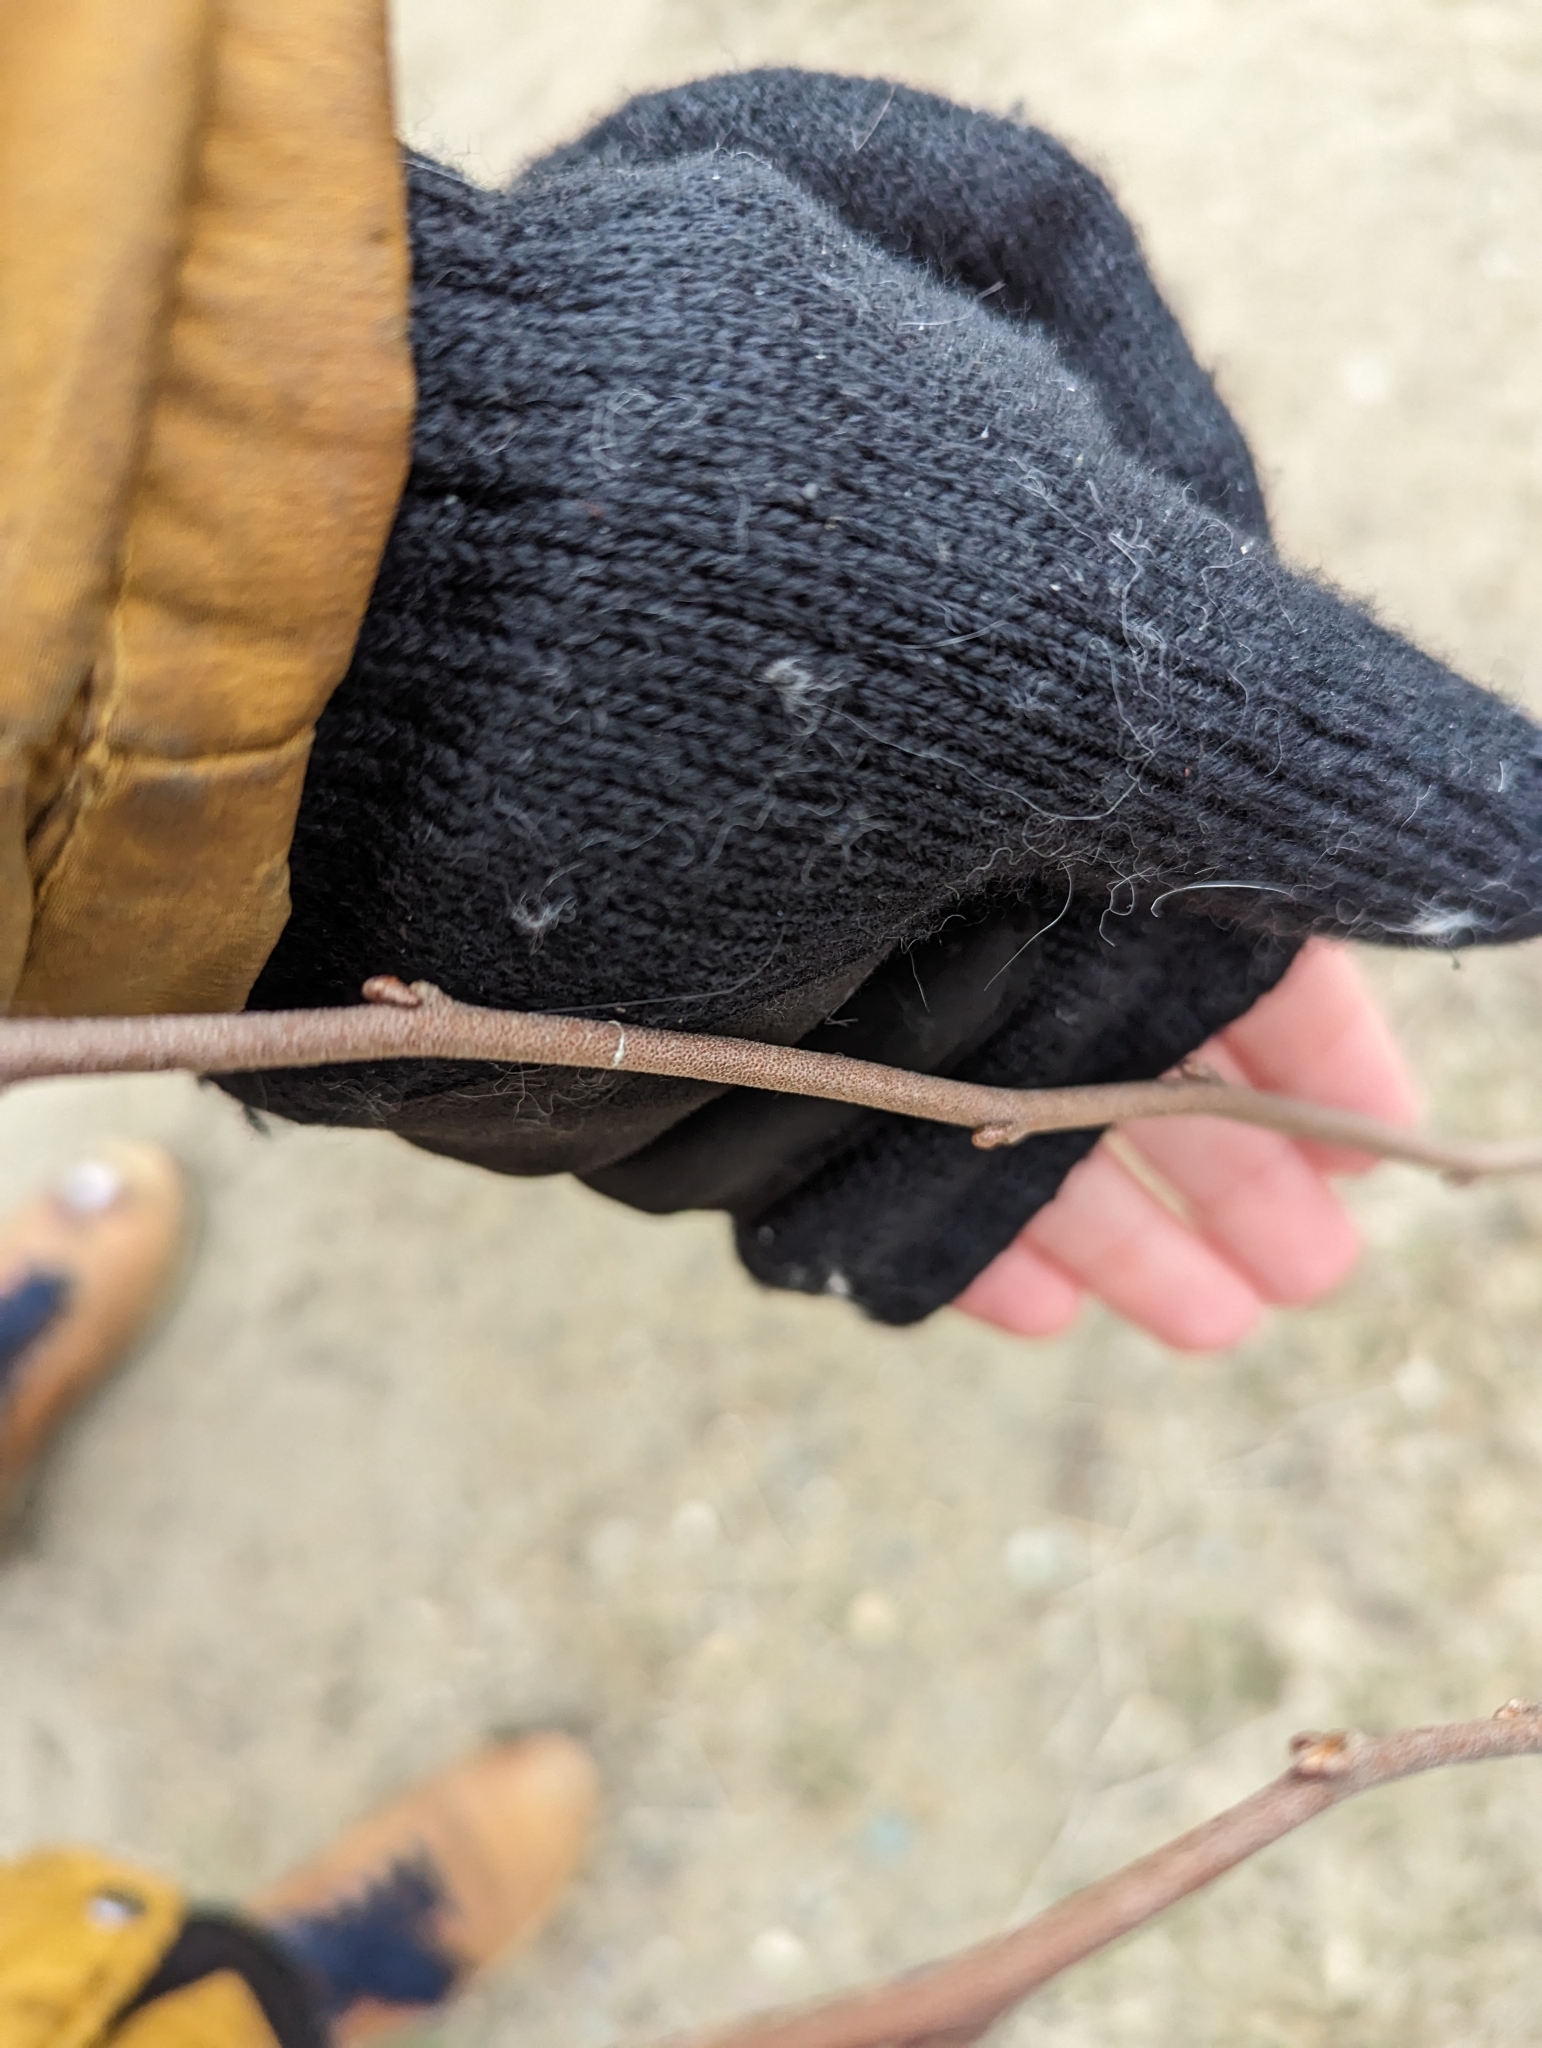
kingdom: Plantae
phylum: Tracheophyta
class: Magnoliopsida
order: Rosales
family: Elaeagnaceae
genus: Elaeagnus
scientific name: Elaeagnus umbellata
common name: Autumn olive
